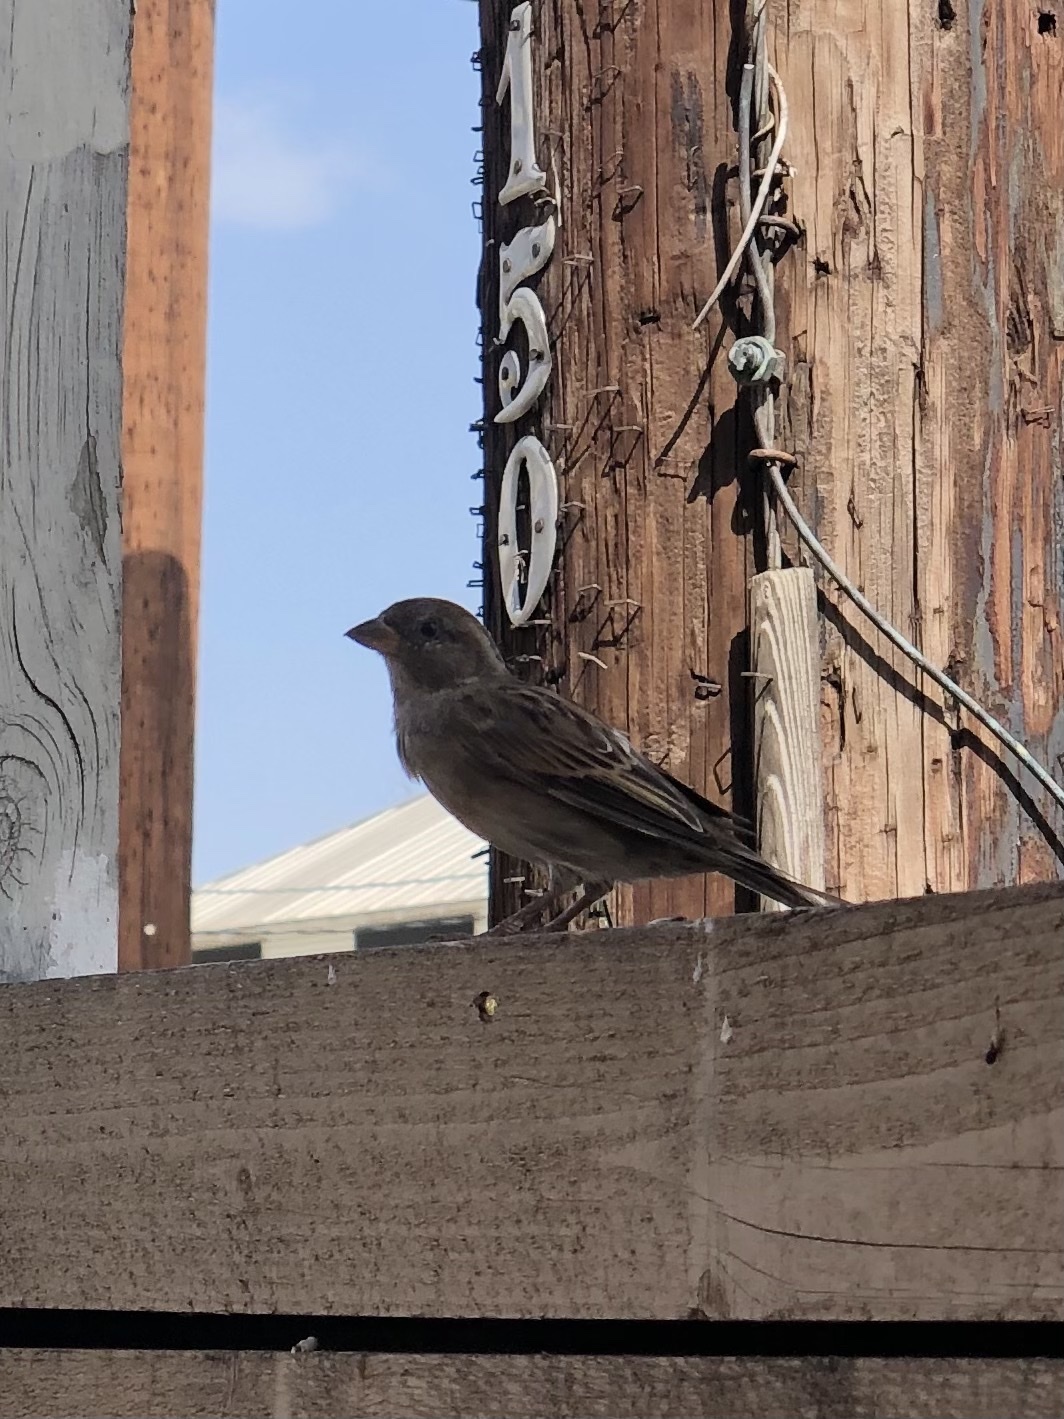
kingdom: Animalia
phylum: Chordata
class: Aves
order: Passeriformes
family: Passeridae
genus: Passer
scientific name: Passer domesticus
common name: House sparrow
